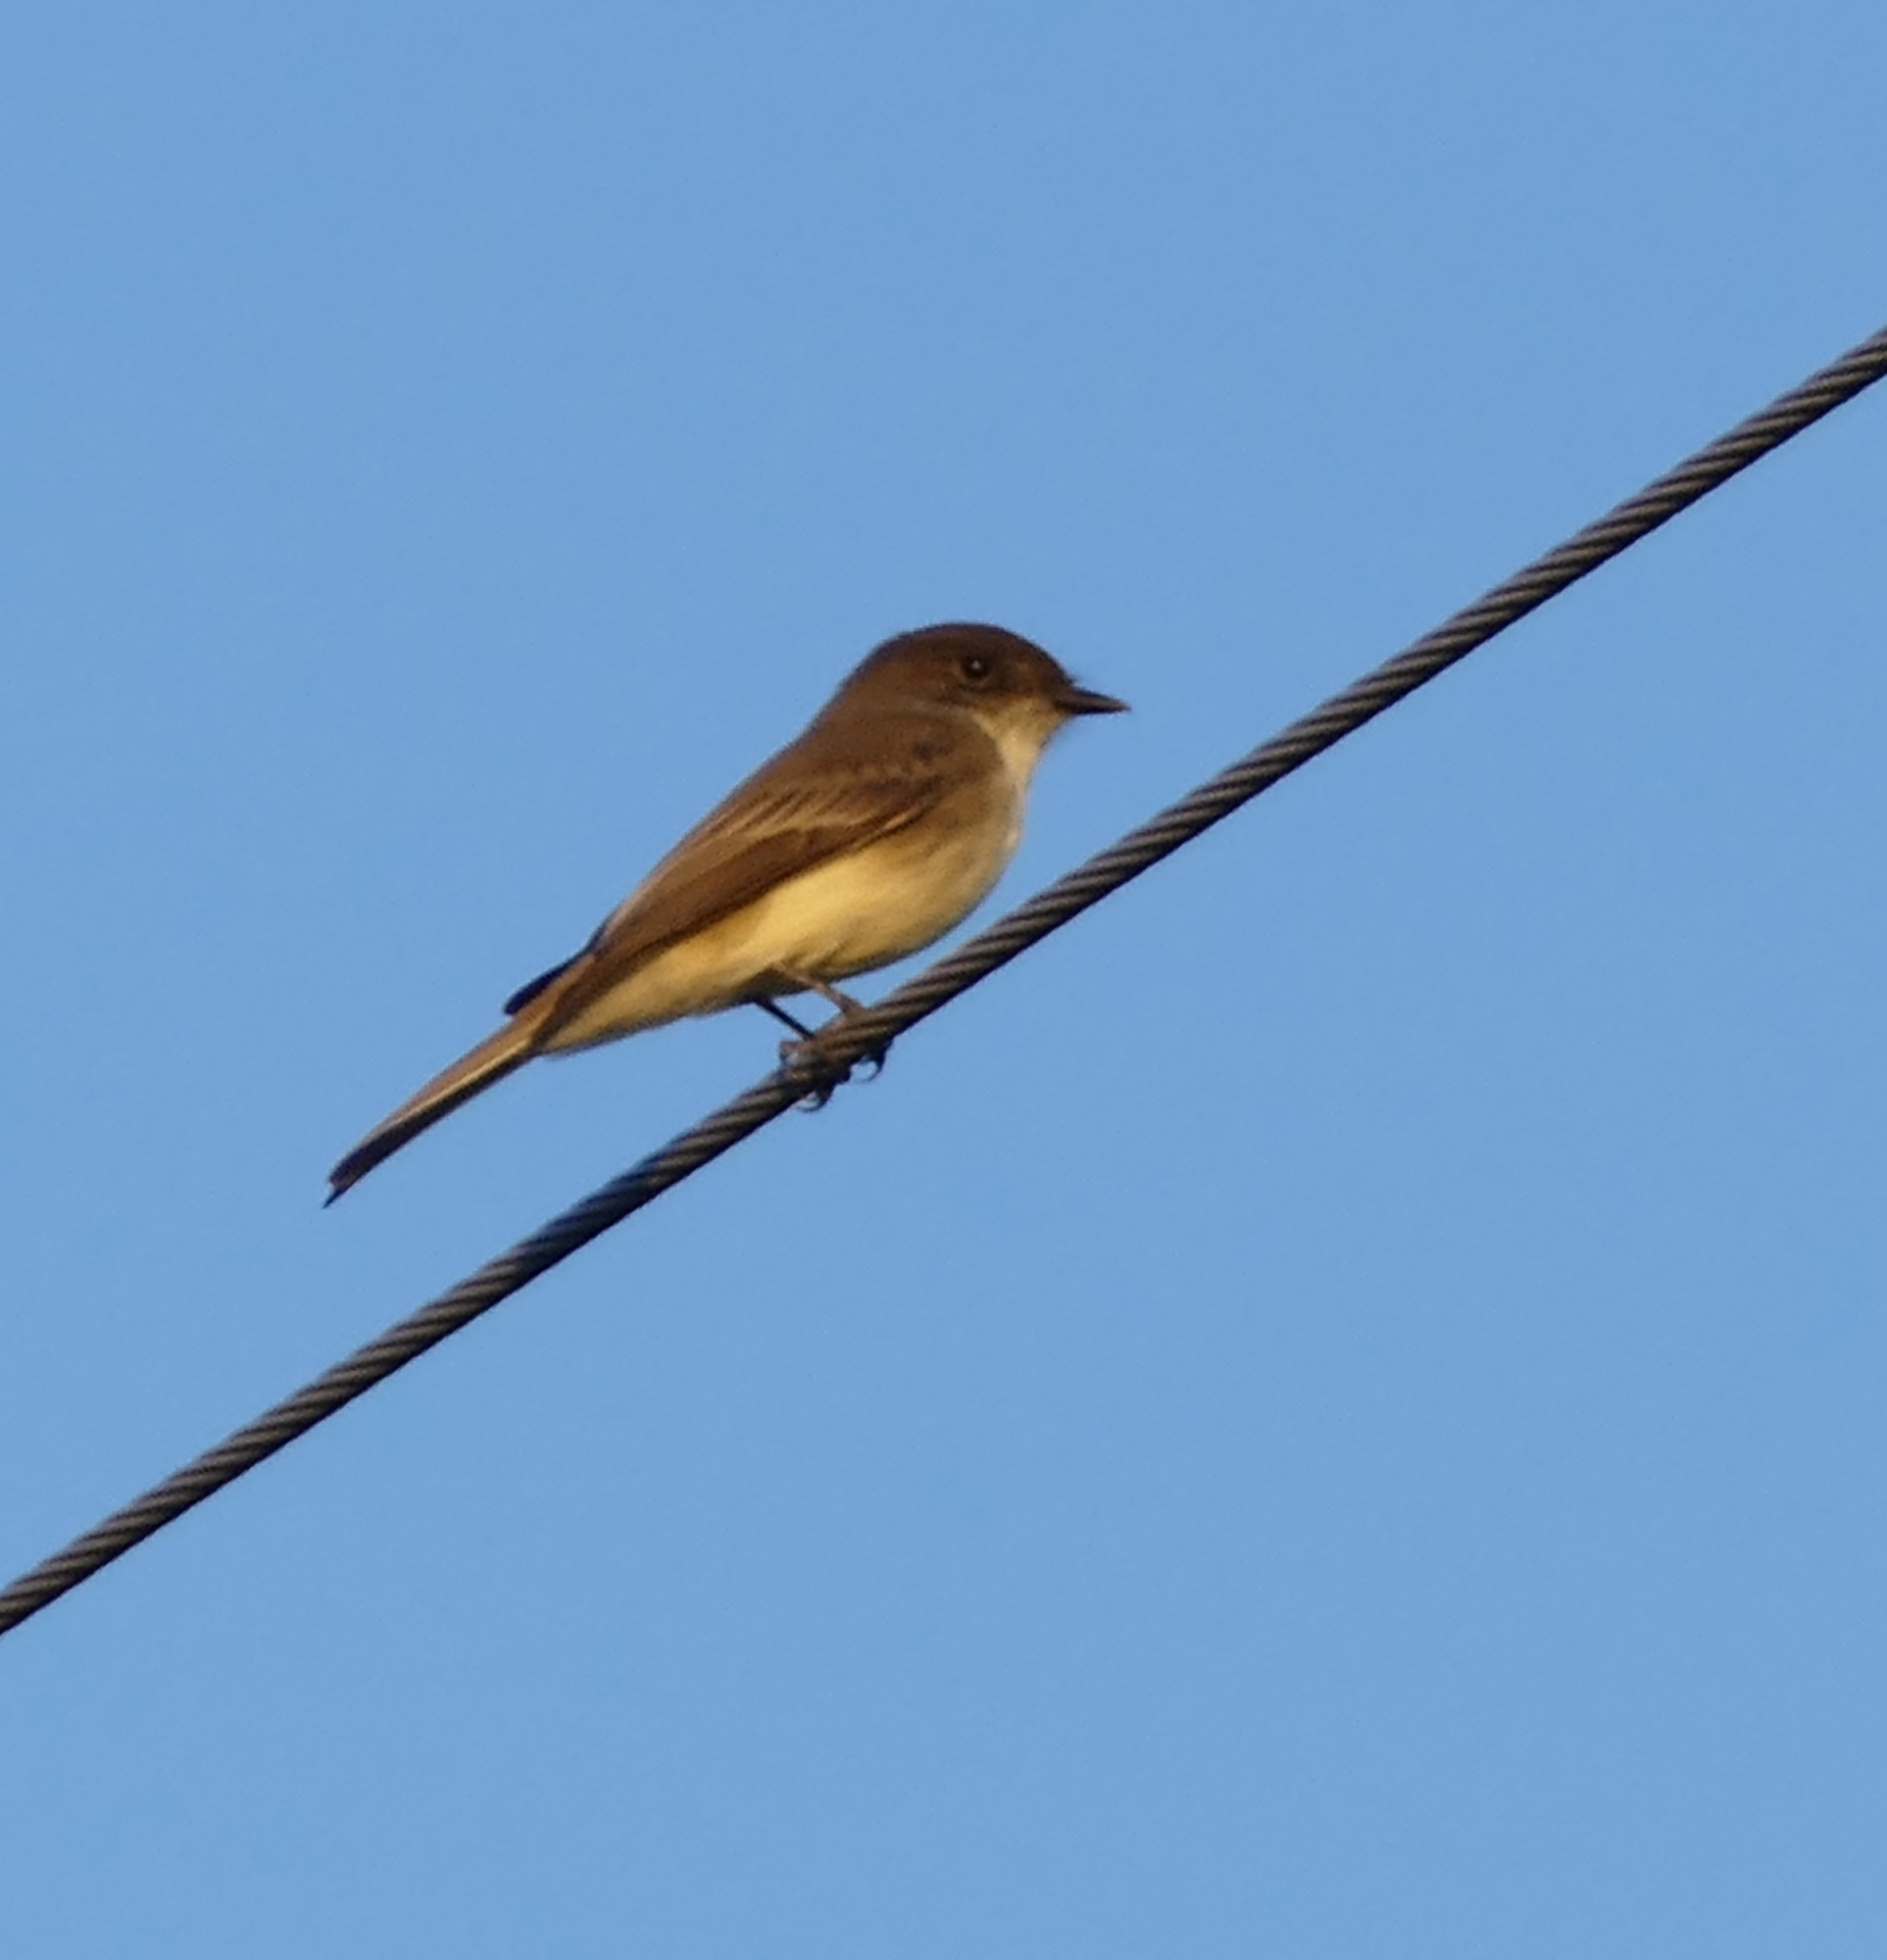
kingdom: Animalia
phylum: Chordata
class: Aves
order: Passeriformes
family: Tyrannidae
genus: Sayornis
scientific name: Sayornis phoebe
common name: Eastern phoebe
